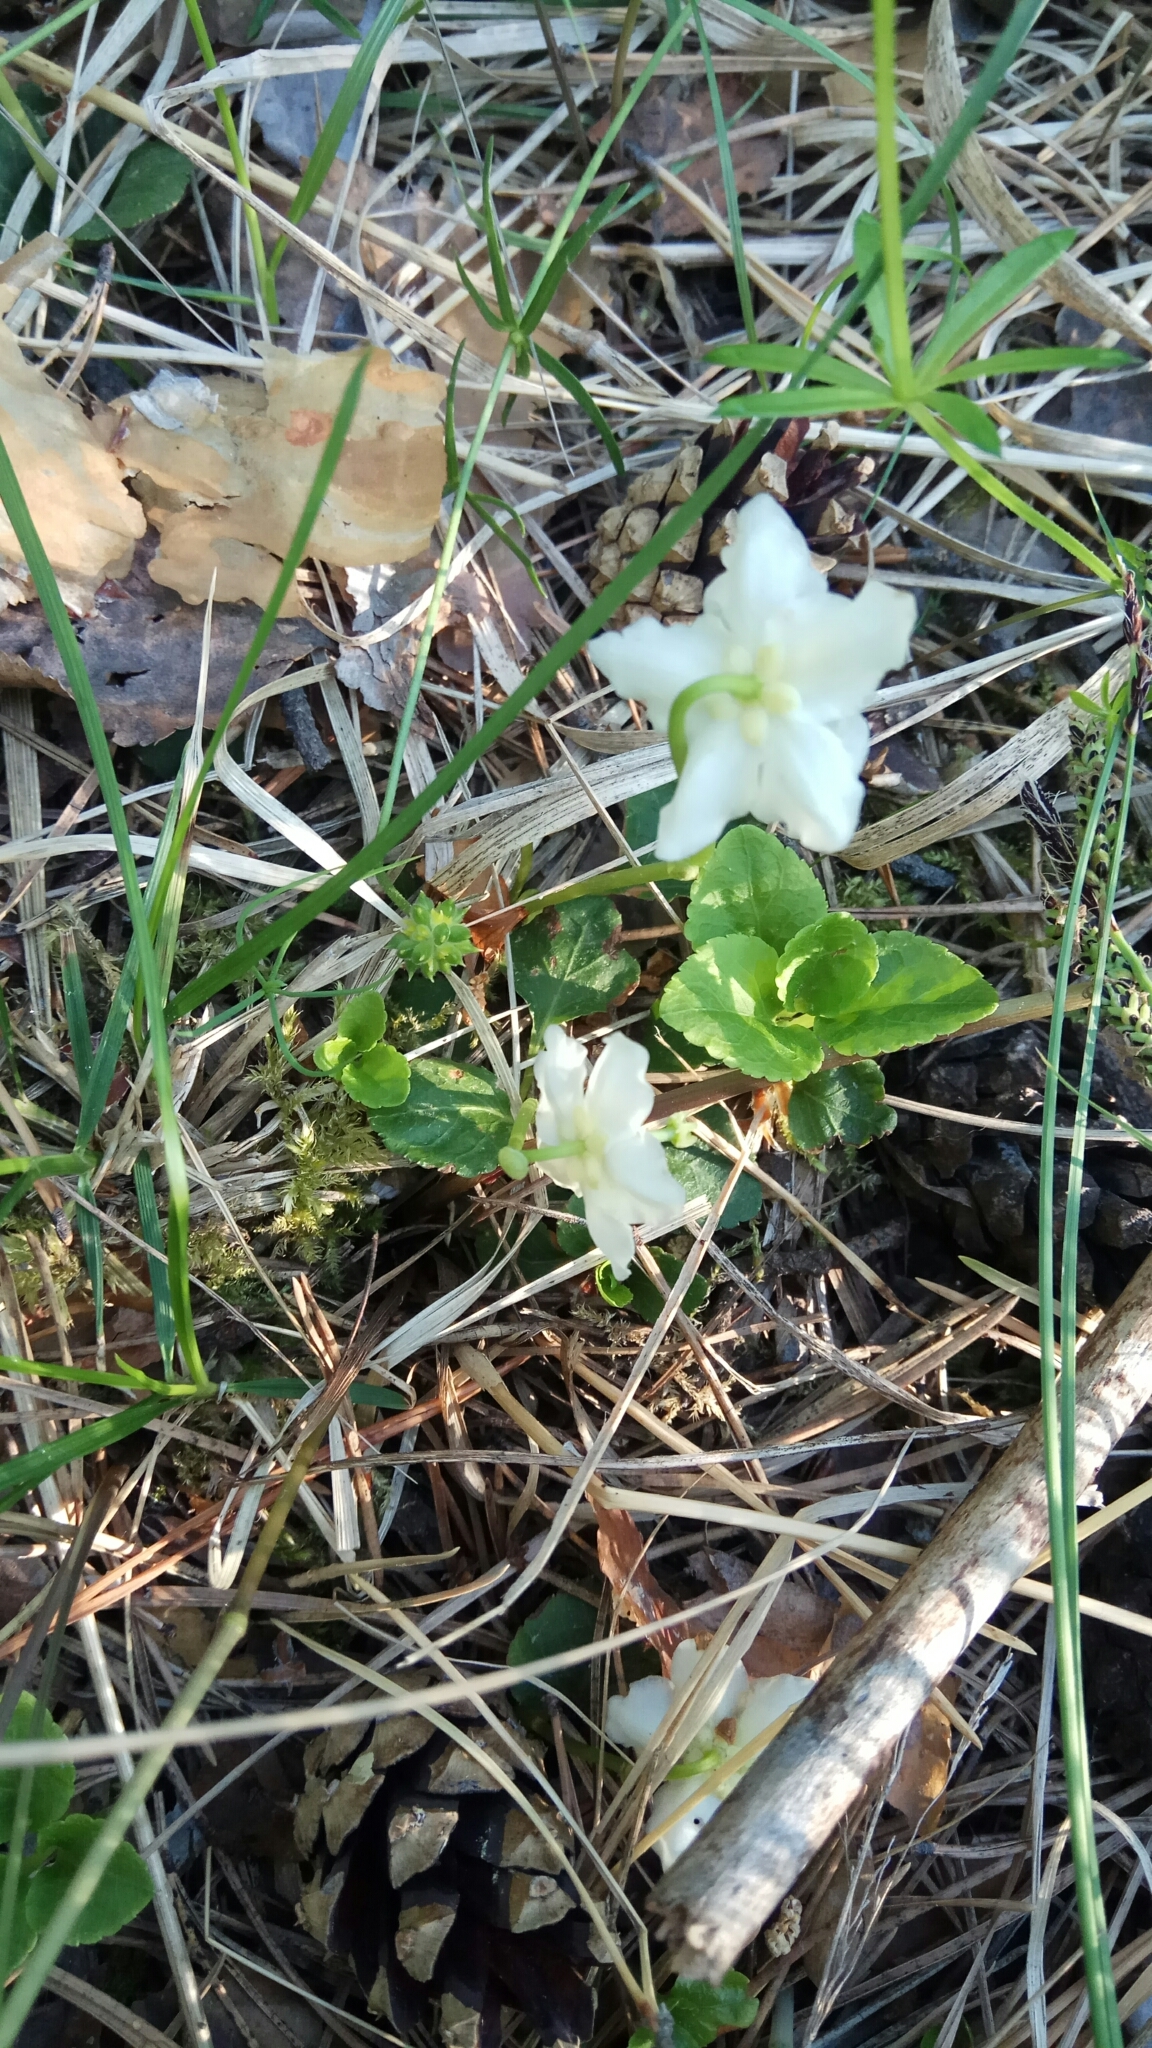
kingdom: Plantae
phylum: Tracheophyta
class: Magnoliopsida
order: Ericales
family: Ericaceae
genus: Moneses
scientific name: Moneses uniflora
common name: One-flowered wintergreen
